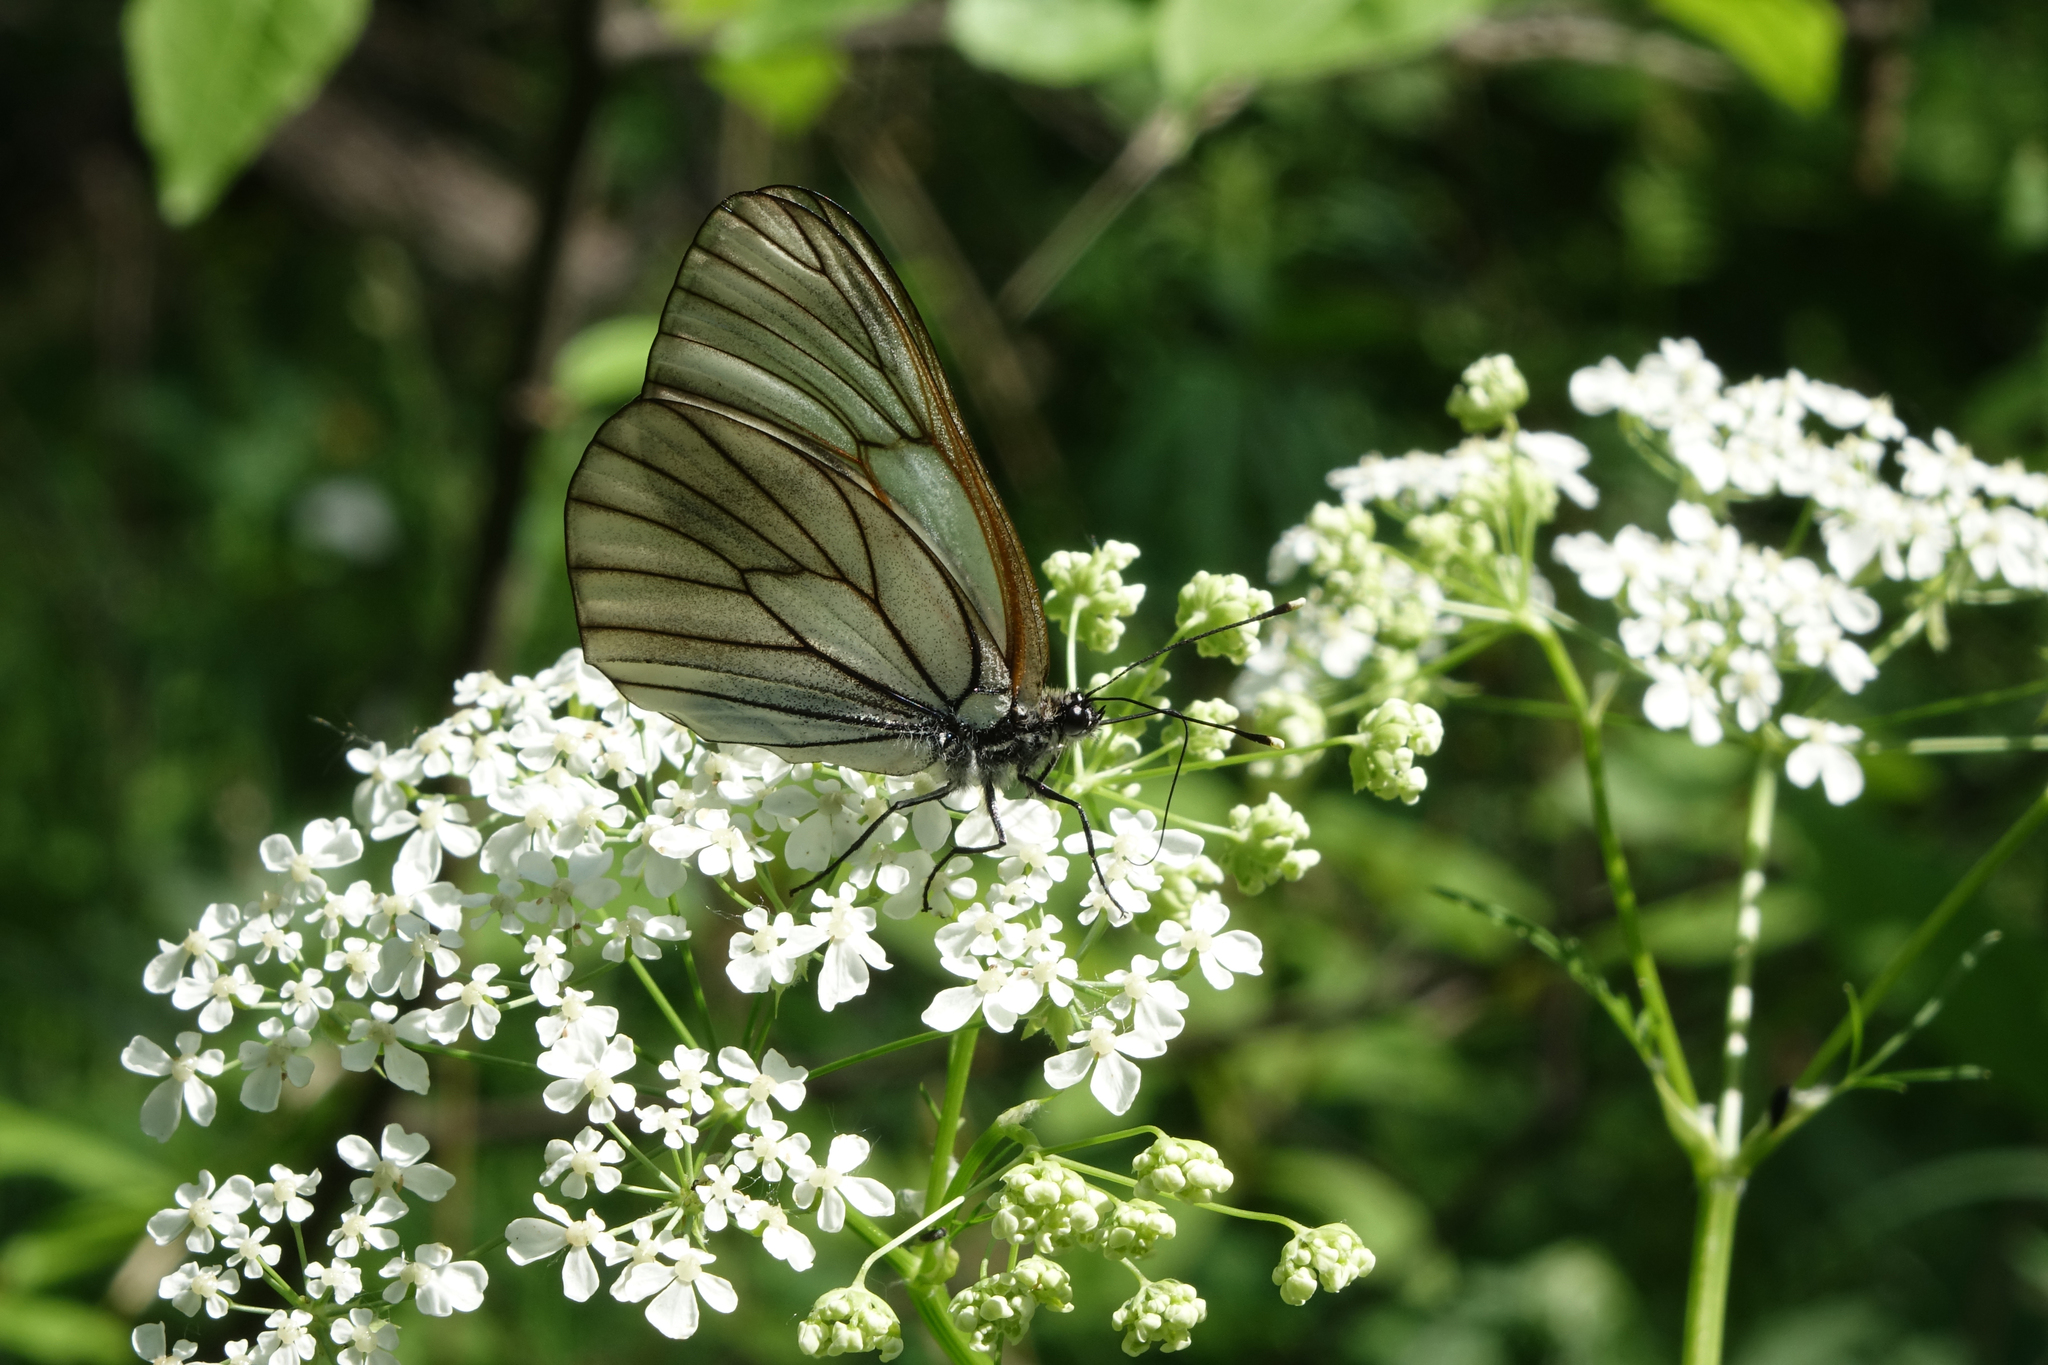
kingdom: Animalia
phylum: Arthropoda
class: Insecta
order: Lepidoptera
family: Pieridae
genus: Aporia
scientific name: Aporia crataegi
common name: Black-veined white
